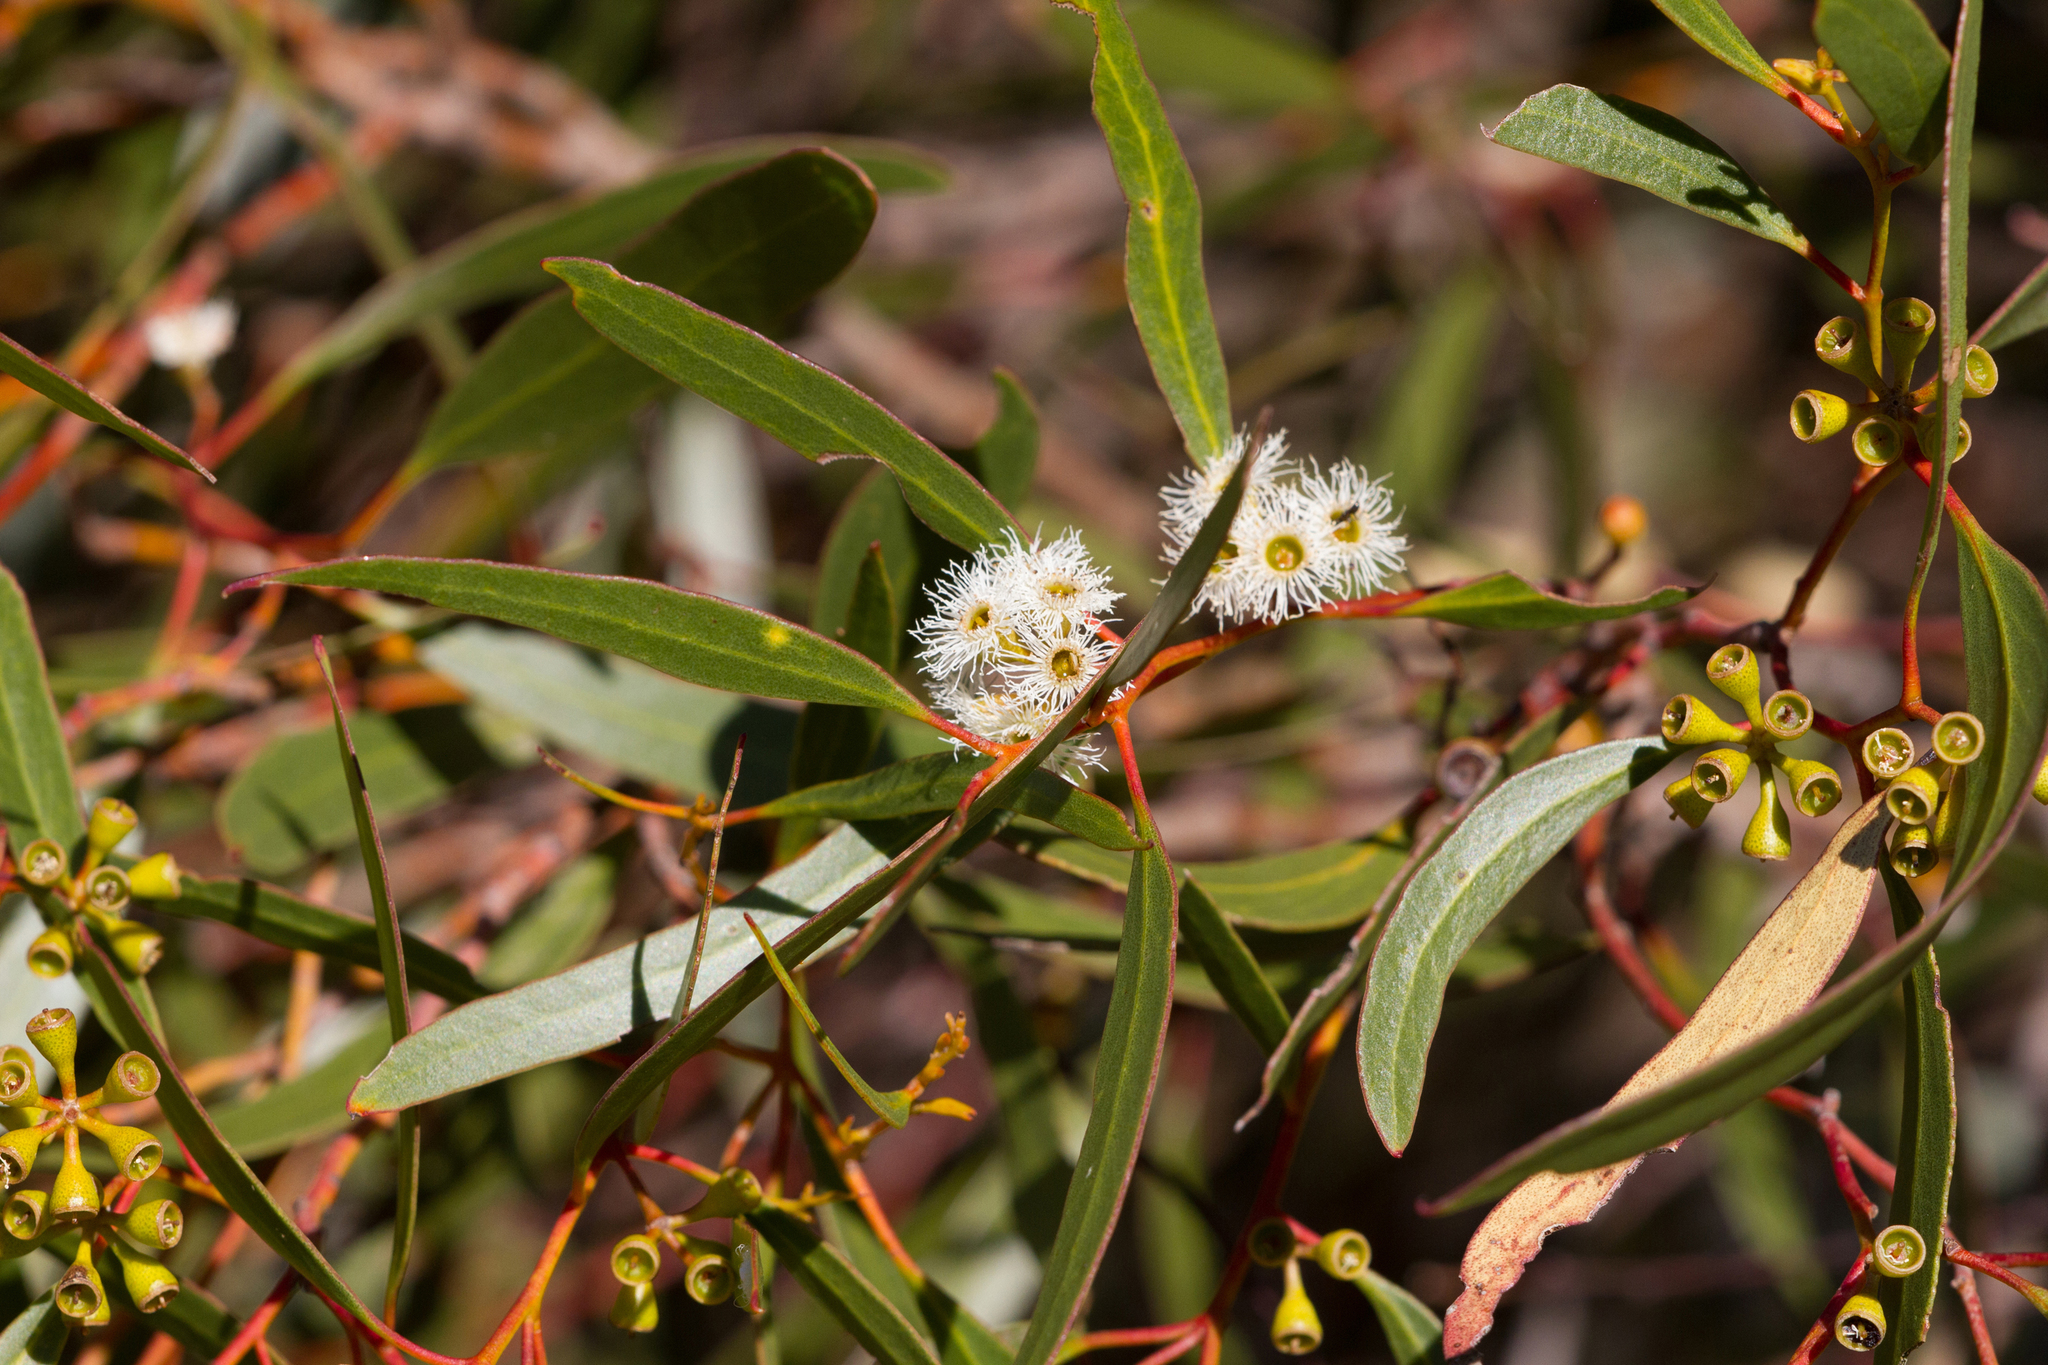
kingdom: Plantae
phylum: Tracheophyta
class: Magnoliopsida
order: Myrtales
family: Myrtaceae
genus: Eucalyptus
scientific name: Eucalyptus gracilis
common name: White mallee
